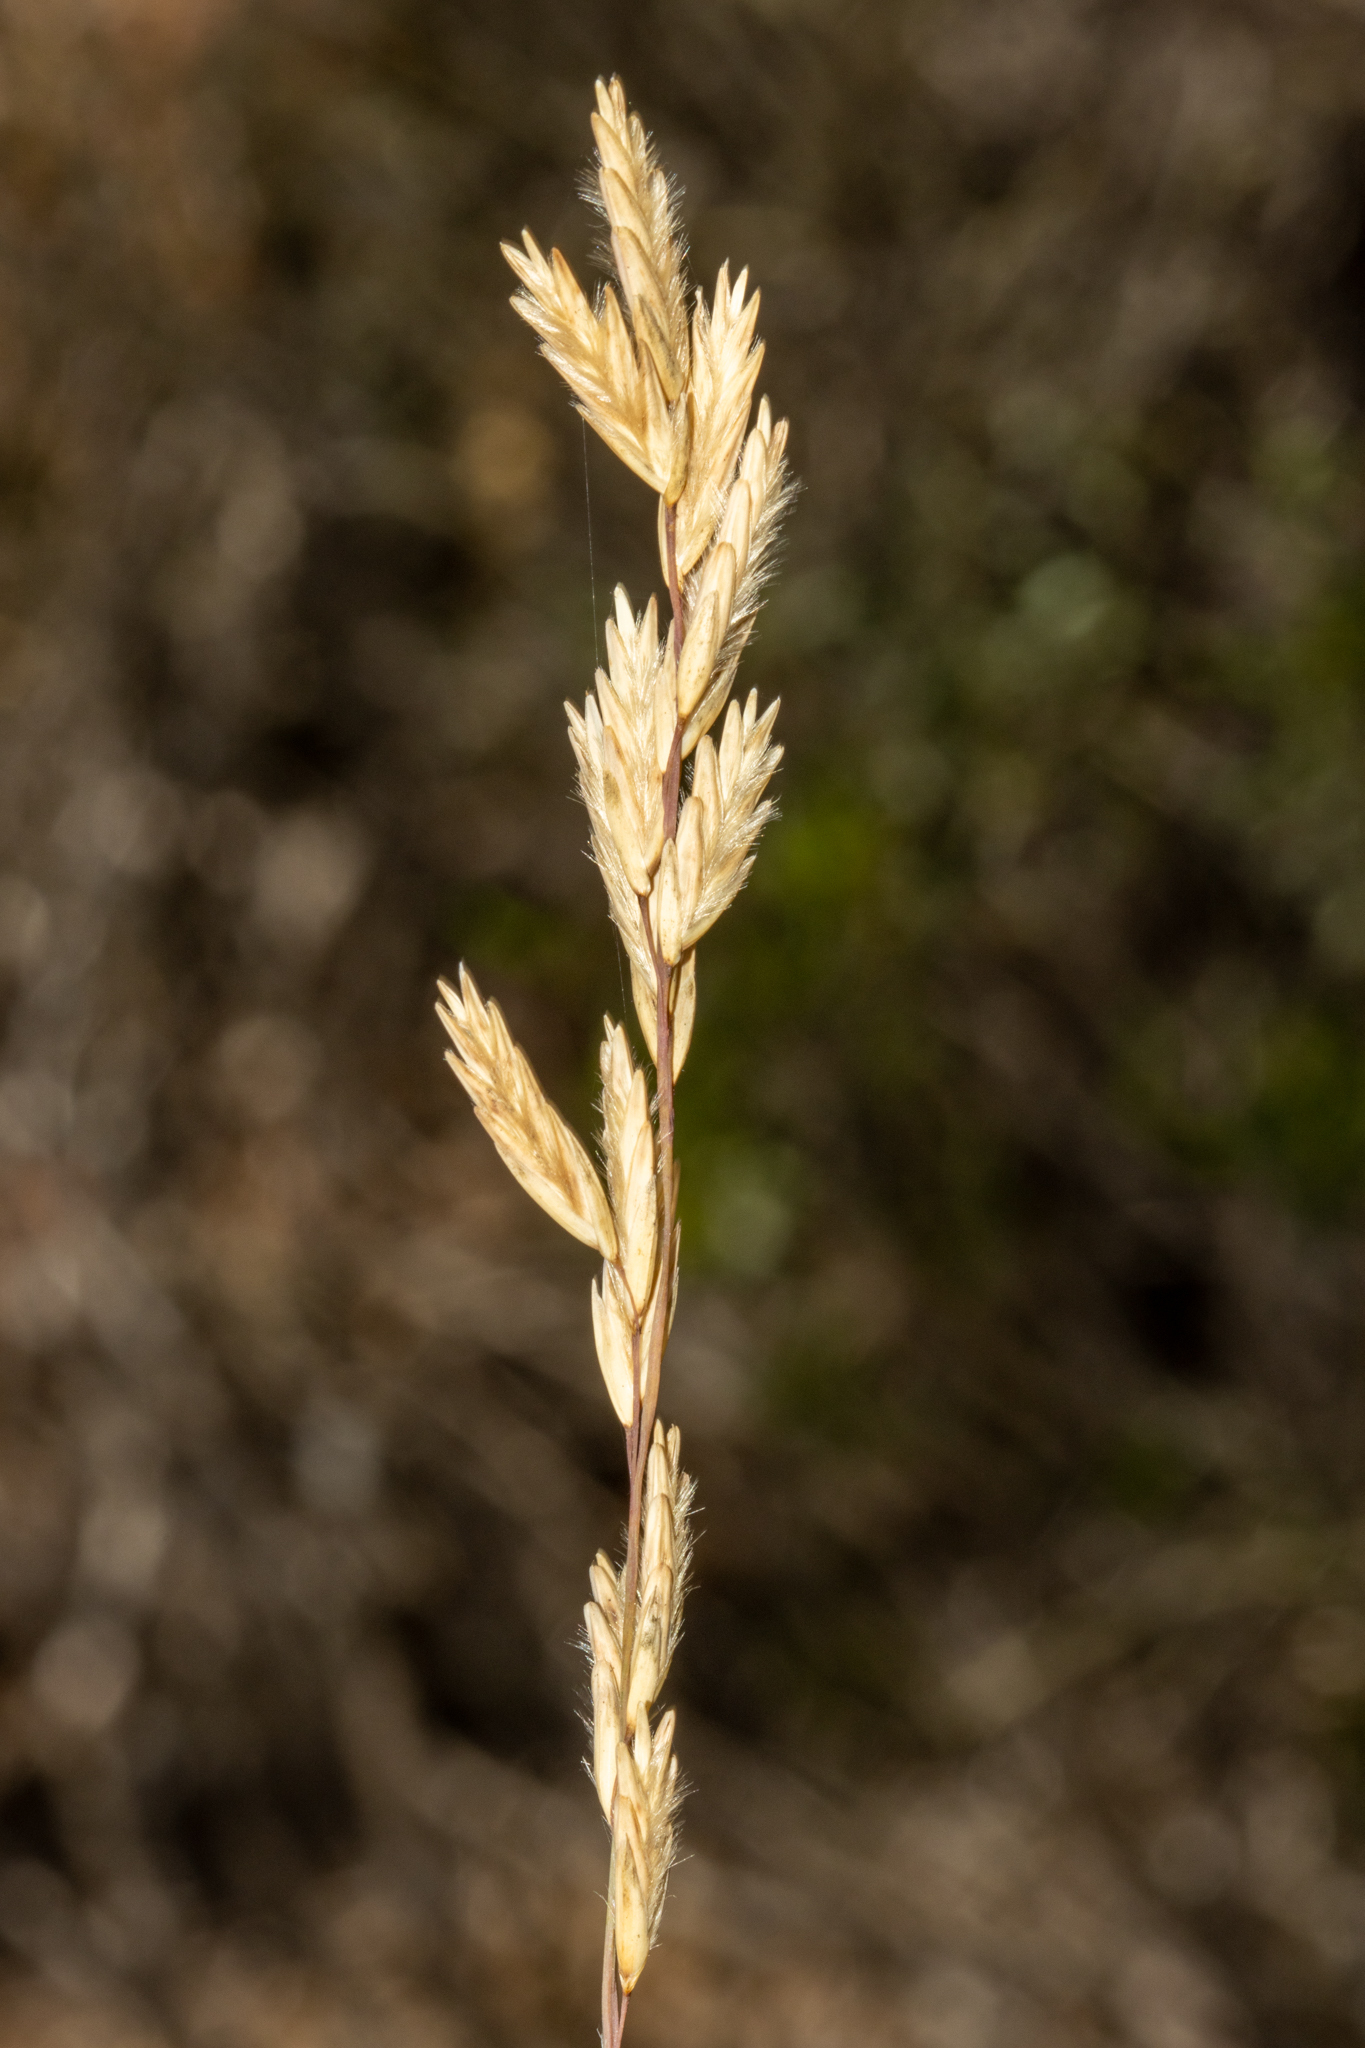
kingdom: Plantae
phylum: Tracheophyta
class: Liliopsida
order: Poales
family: Poaceae
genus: Triodia
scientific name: Triodia scariosa
